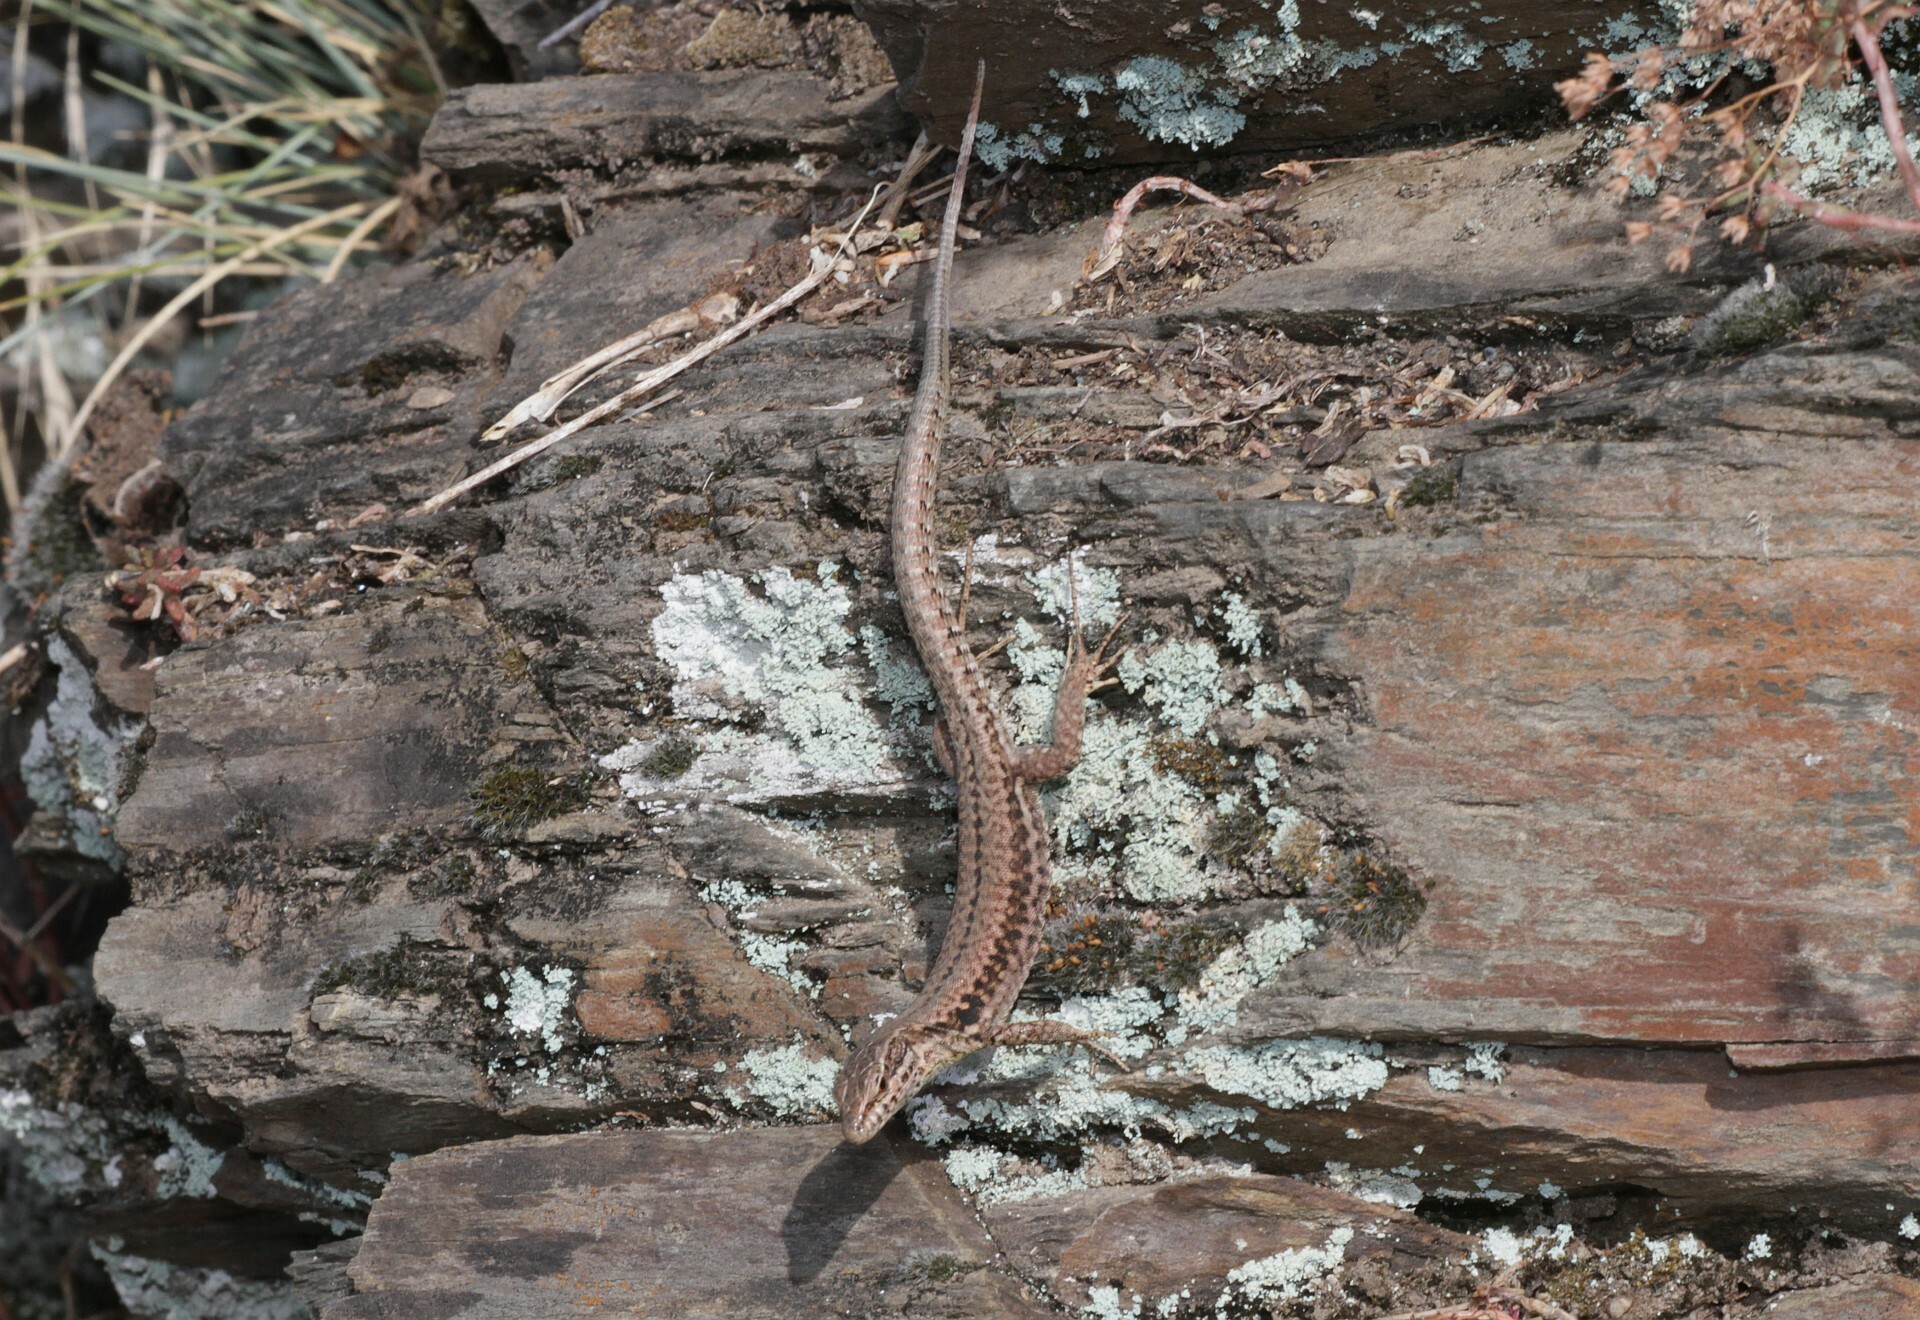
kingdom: Animalia
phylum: Chordata
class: Squamata
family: Lacertidae
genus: Podarcis
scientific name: Podarcis muralis
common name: Common wall lizard
